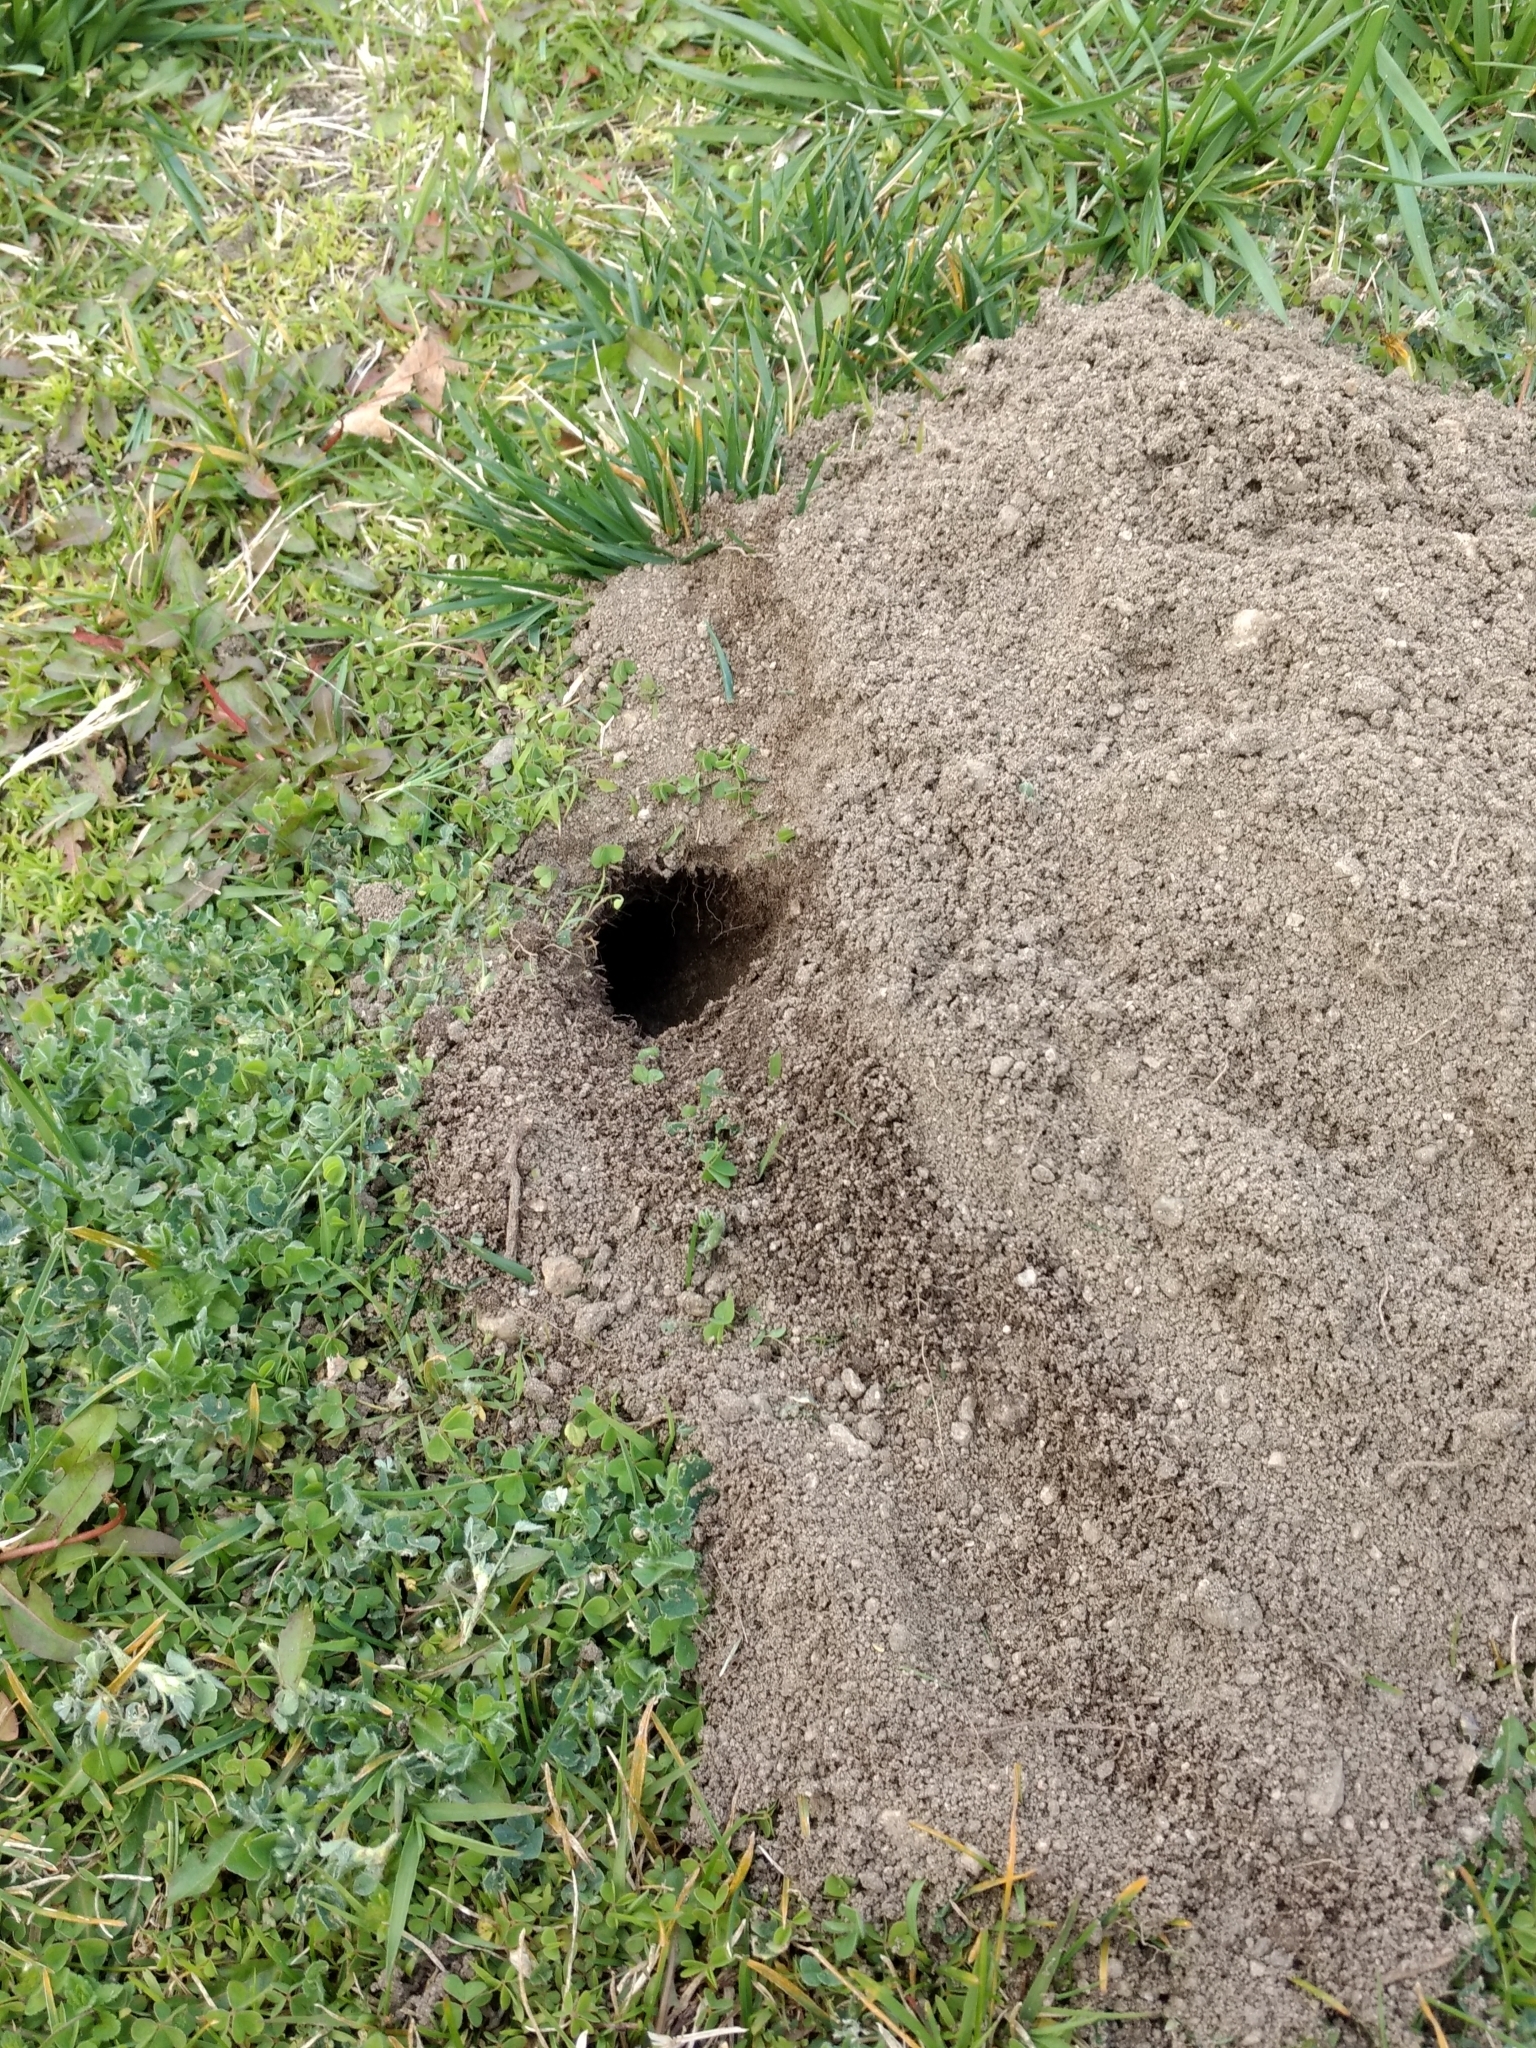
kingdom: Animalia
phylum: Chordata
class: Mammalia
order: Rodentia
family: Geomyidae
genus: Thomomys
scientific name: Thomomys bottae
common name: Botta's pocket gopher
